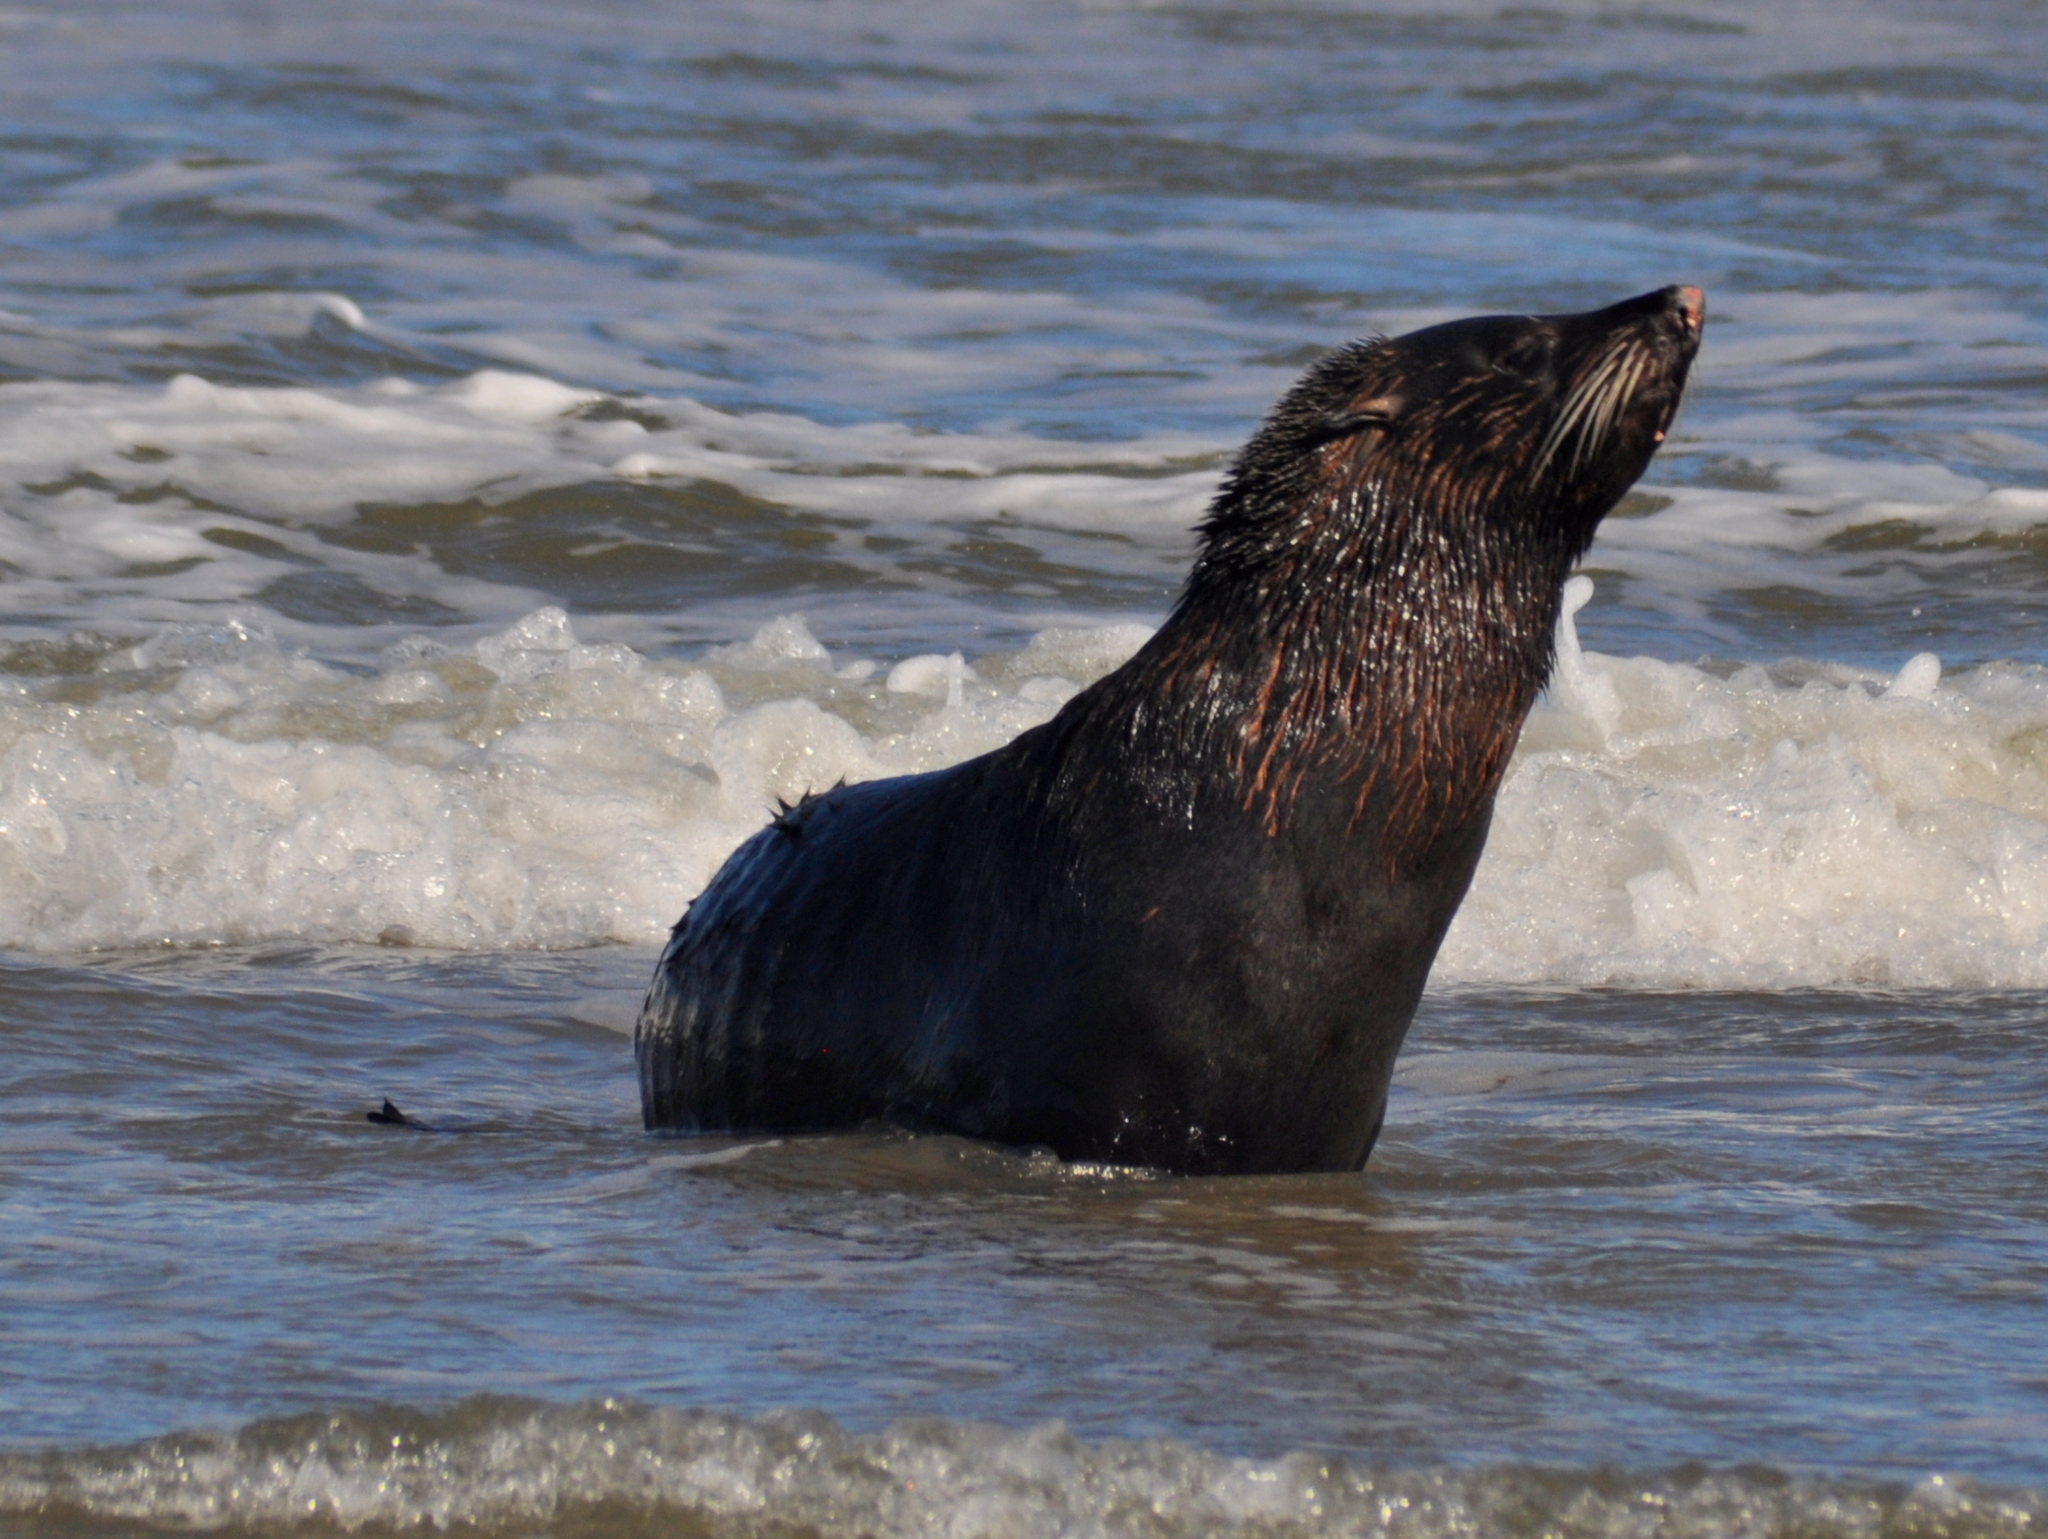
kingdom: Animalia
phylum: Chordata
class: Mammalia
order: Carnivora
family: Otariidae
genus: Arctocephalus
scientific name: Arctocephalus australis
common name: South american fur seal
